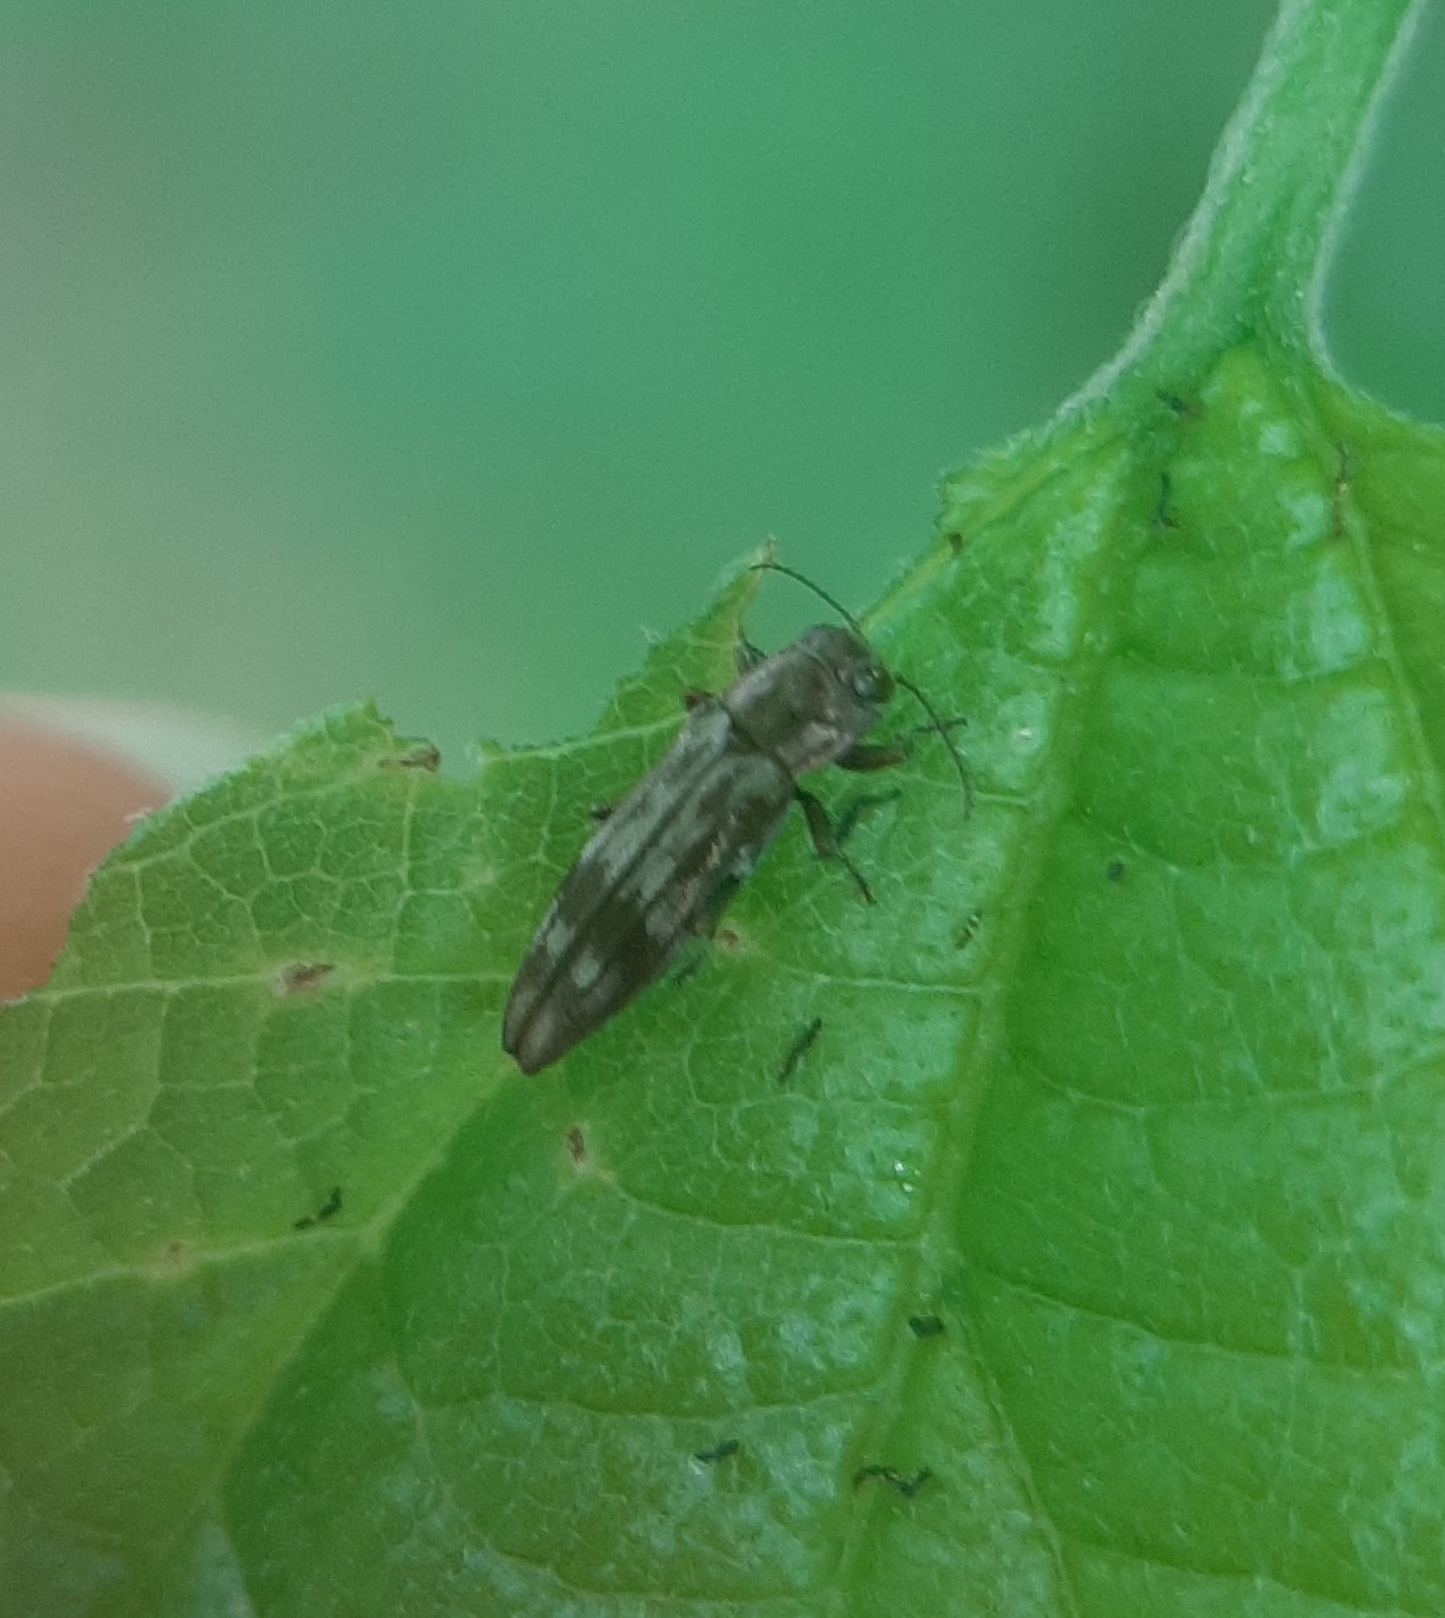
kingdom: Animalia
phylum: Arthropoda
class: Insecta
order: Coleoptera
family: Buprestidae
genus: Agrilus
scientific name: Agrilus lecontei
